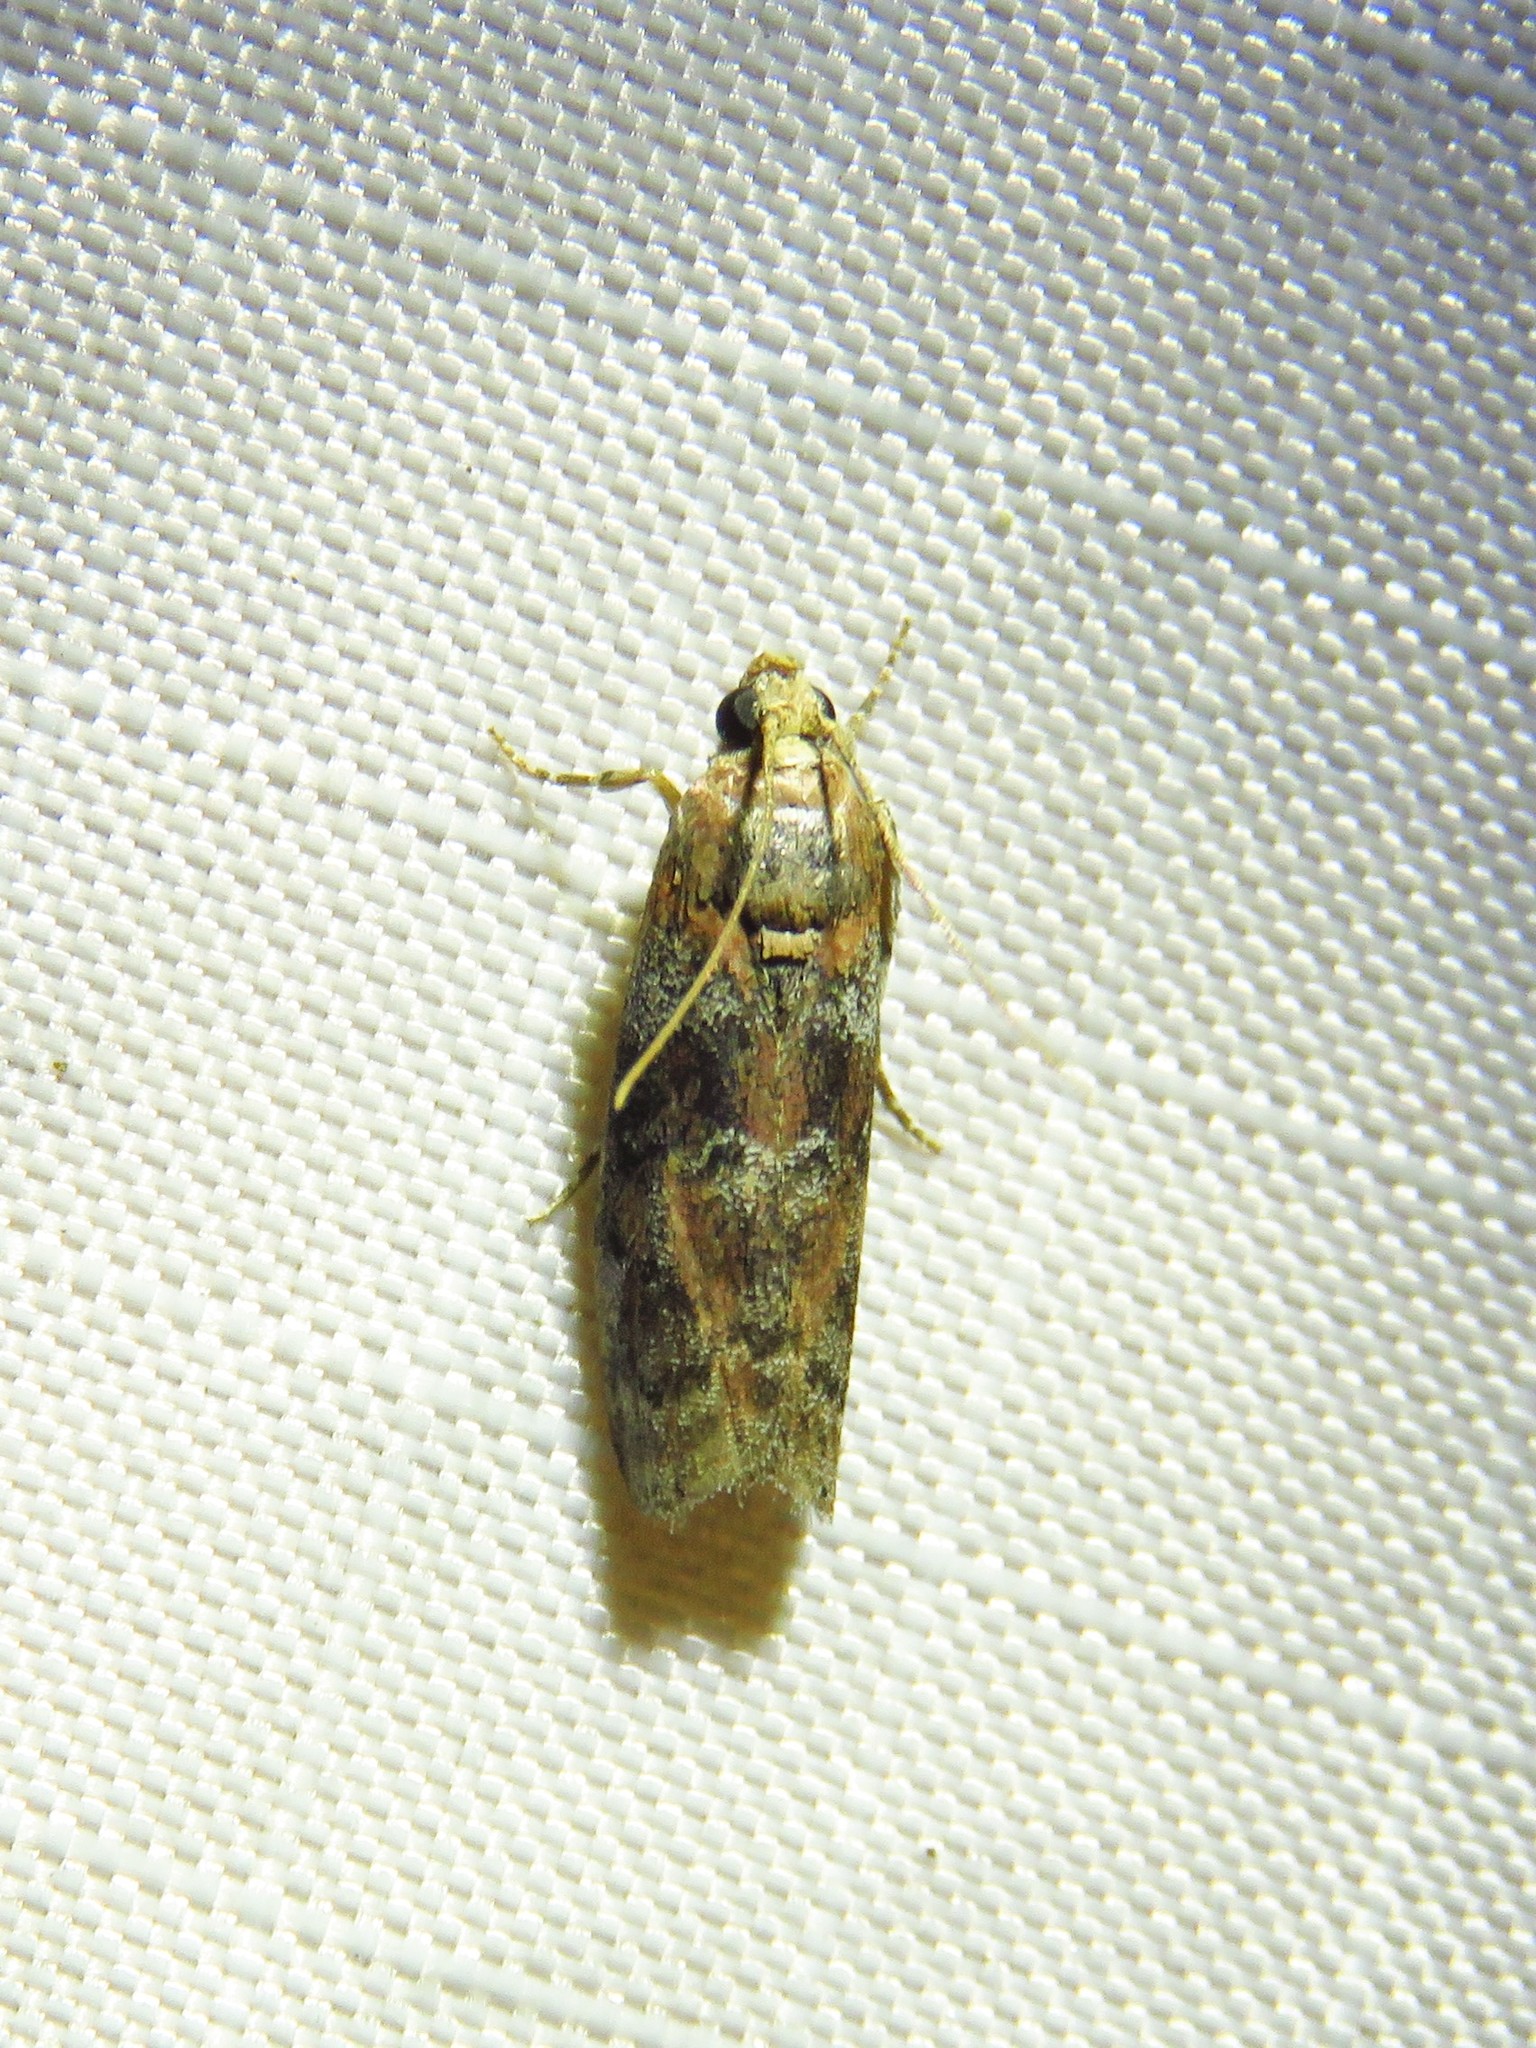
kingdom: Animalia
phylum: Arthropoda
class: Insecta
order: Lepidoptera
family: Pyralidae
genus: Sciota
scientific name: Sciota
